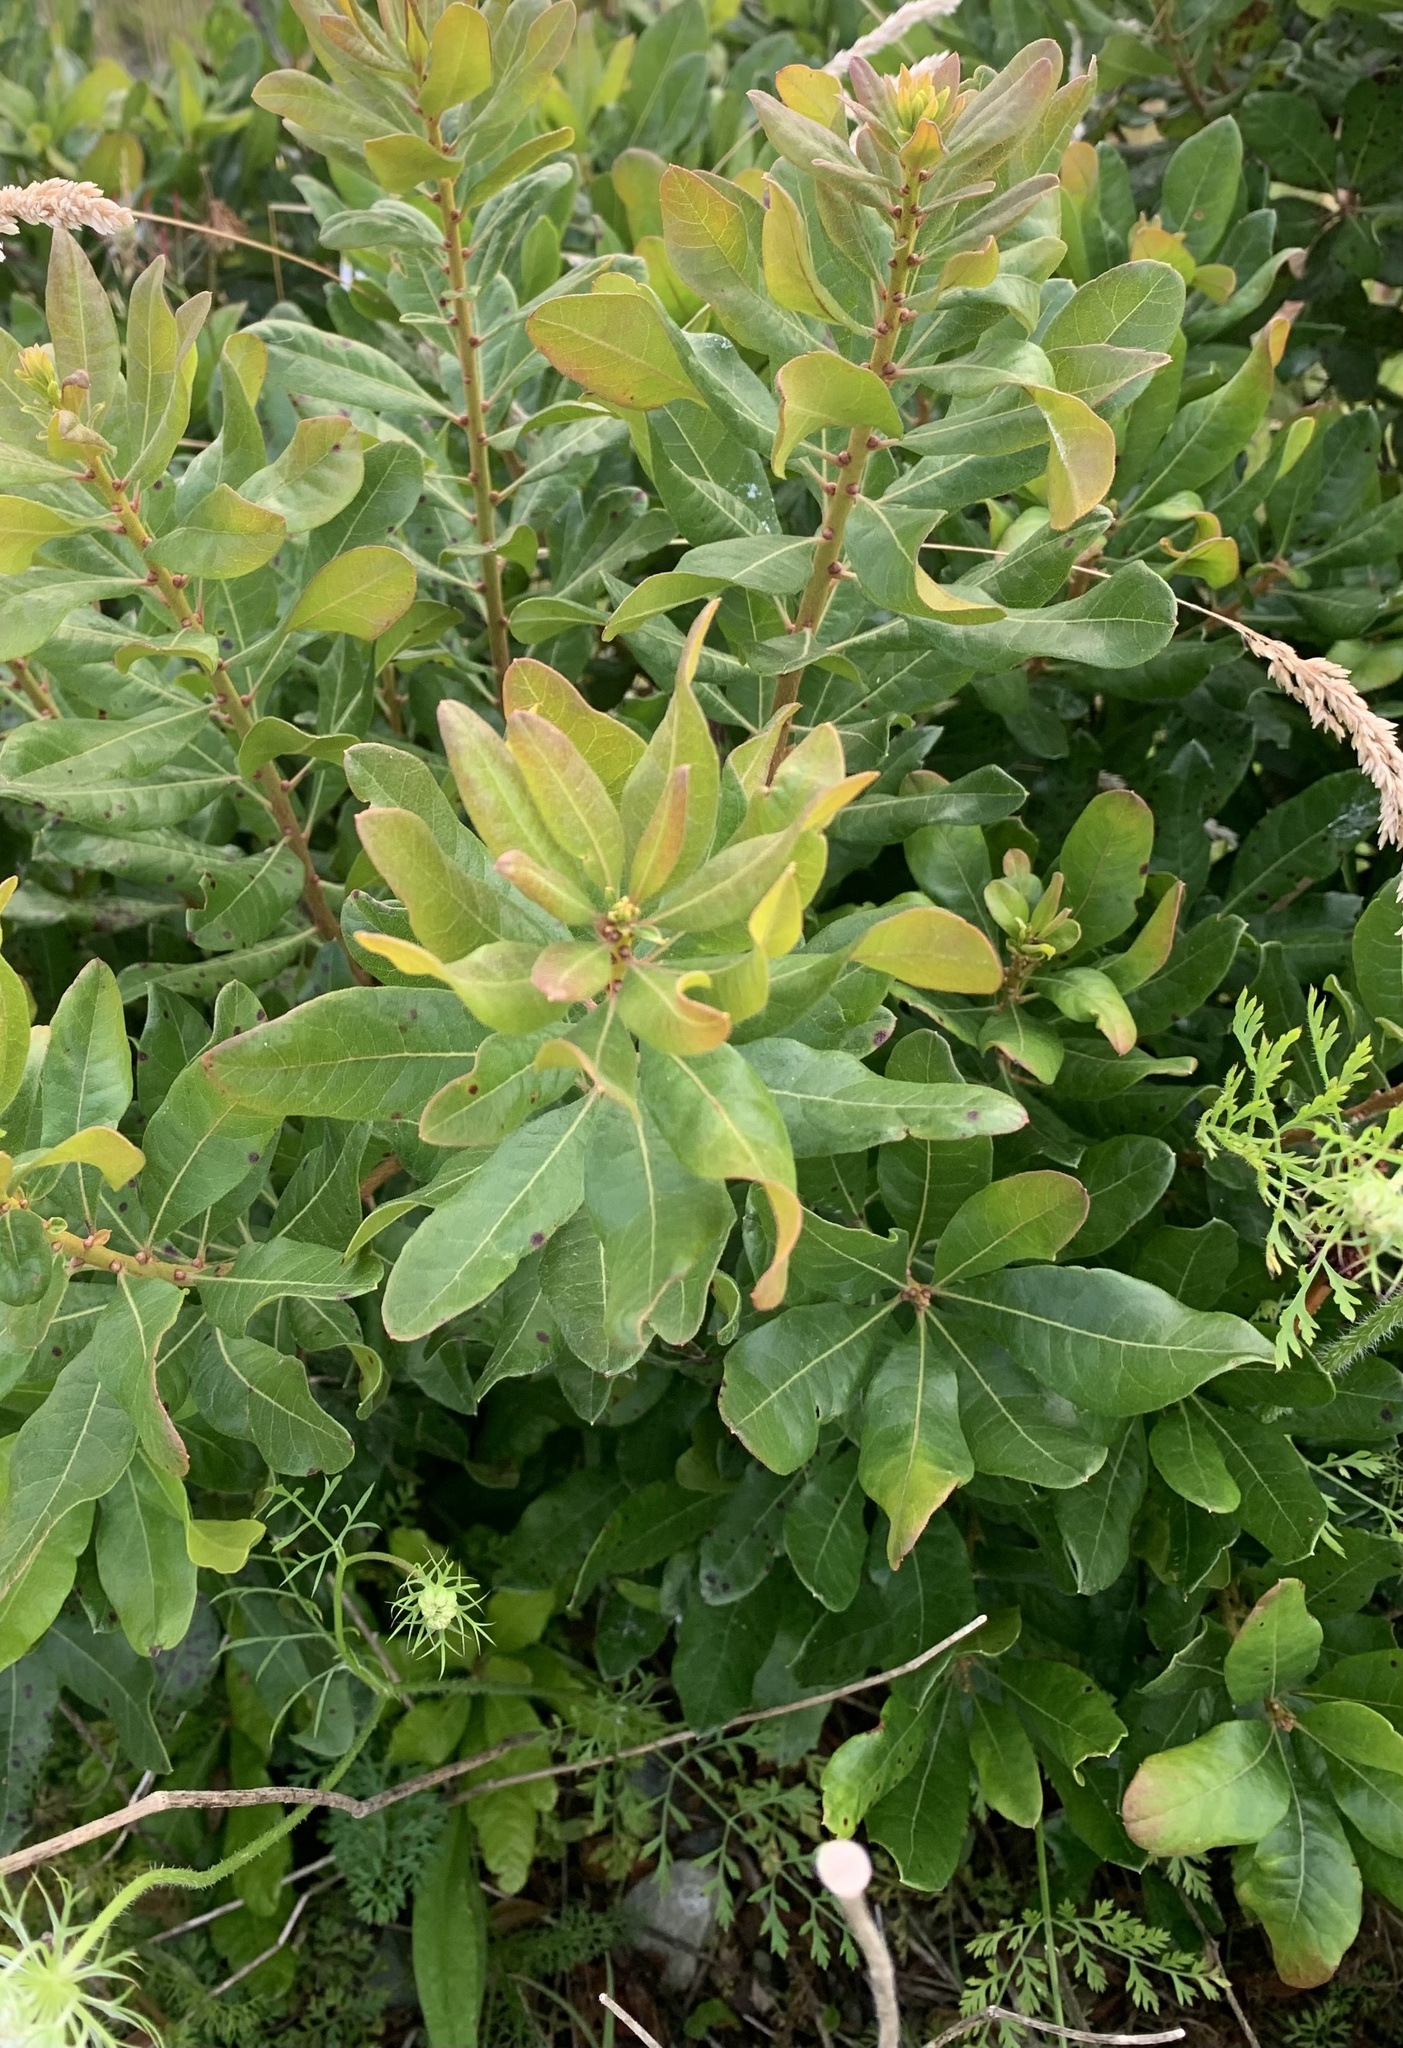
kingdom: Plantae
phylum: Tracheophyta
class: Magnoliopsida
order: Fagales
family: Myricaceae
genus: Morella
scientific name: Morella pensylvanica
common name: Northern bayberry
